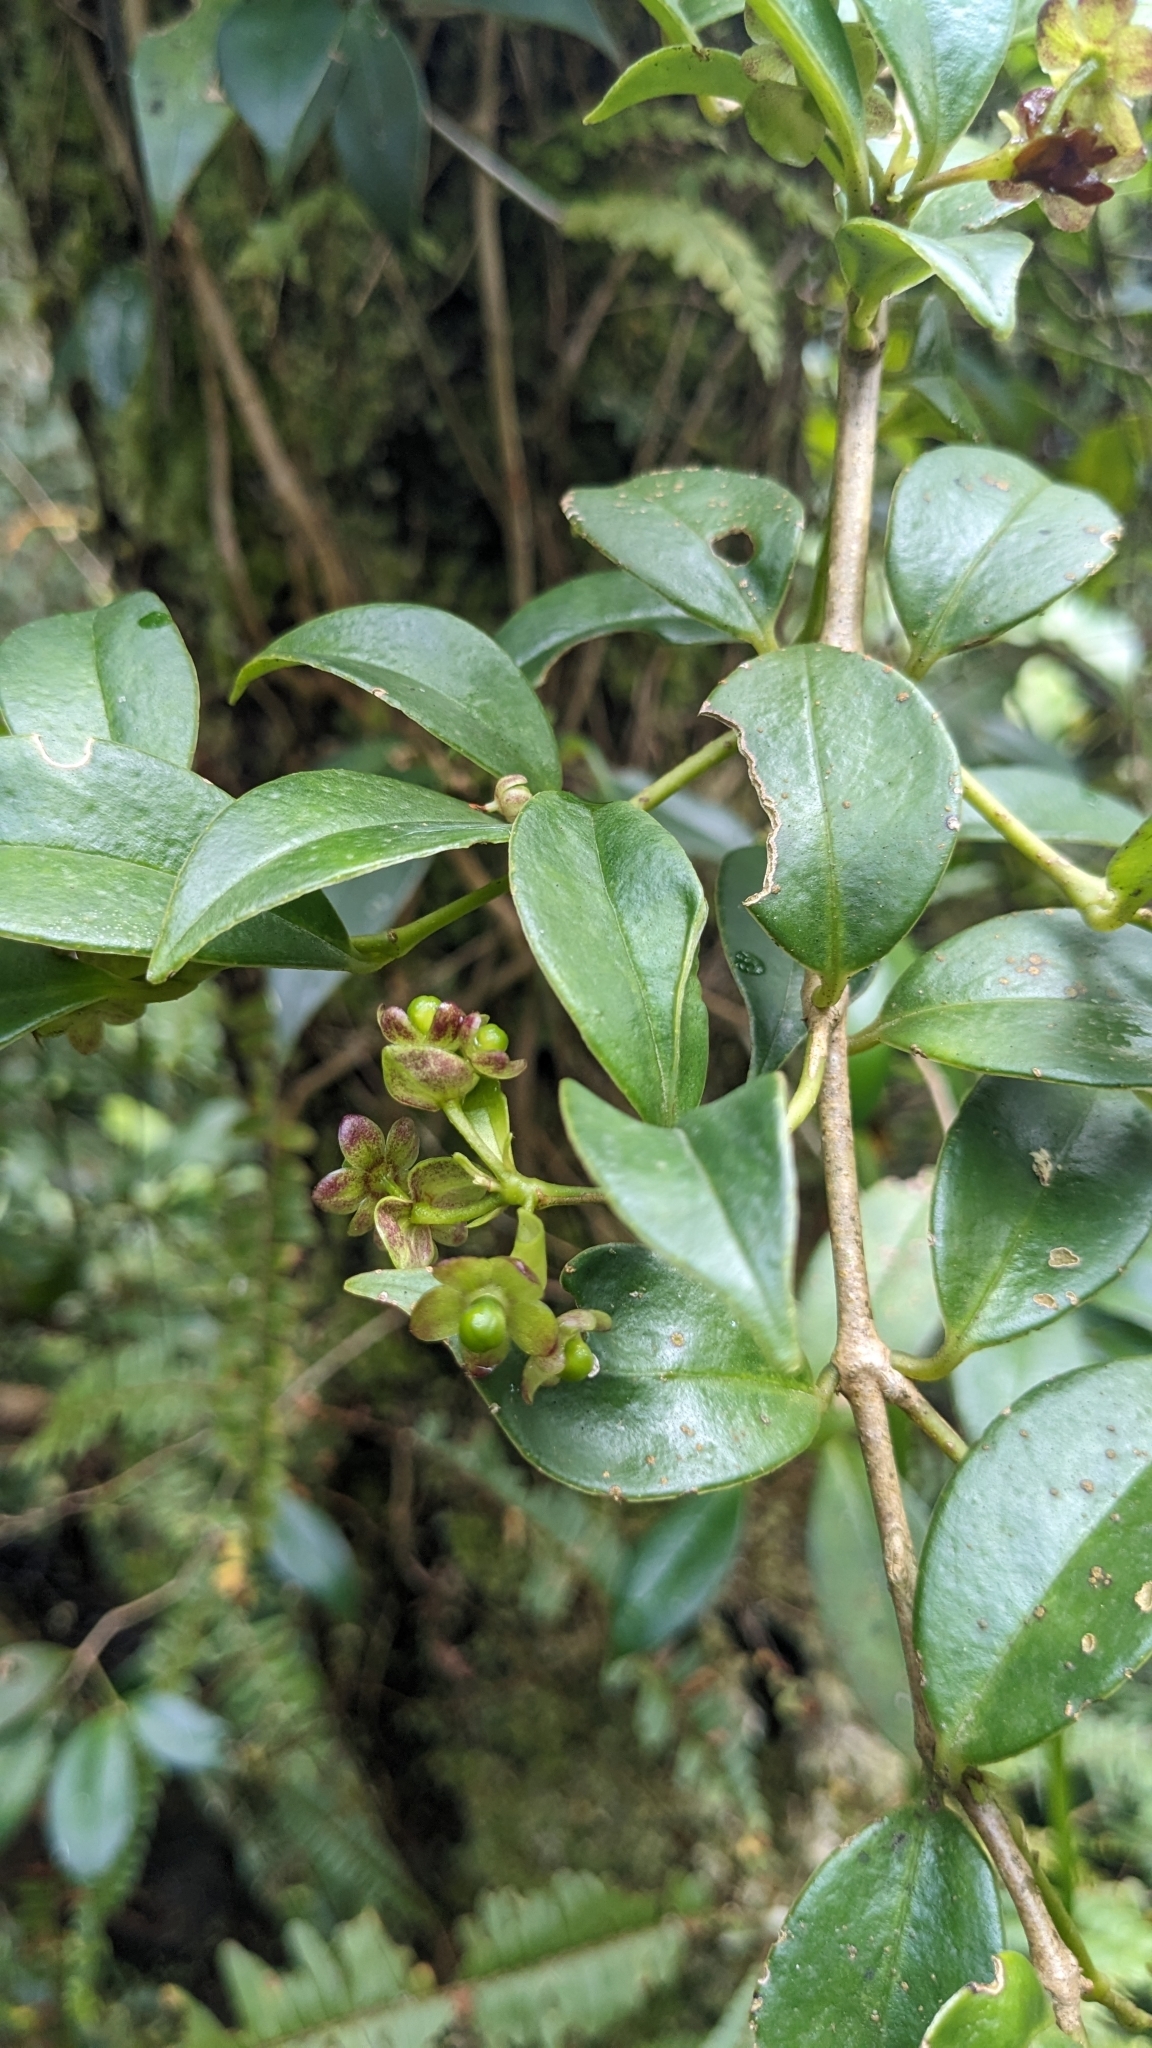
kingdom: Plantae
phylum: Tracheophyta
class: Magnoliopsida
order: Lamiales
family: Gesneriaceae
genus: Aeschynanthus
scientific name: Aeschynanthus acuminatus
